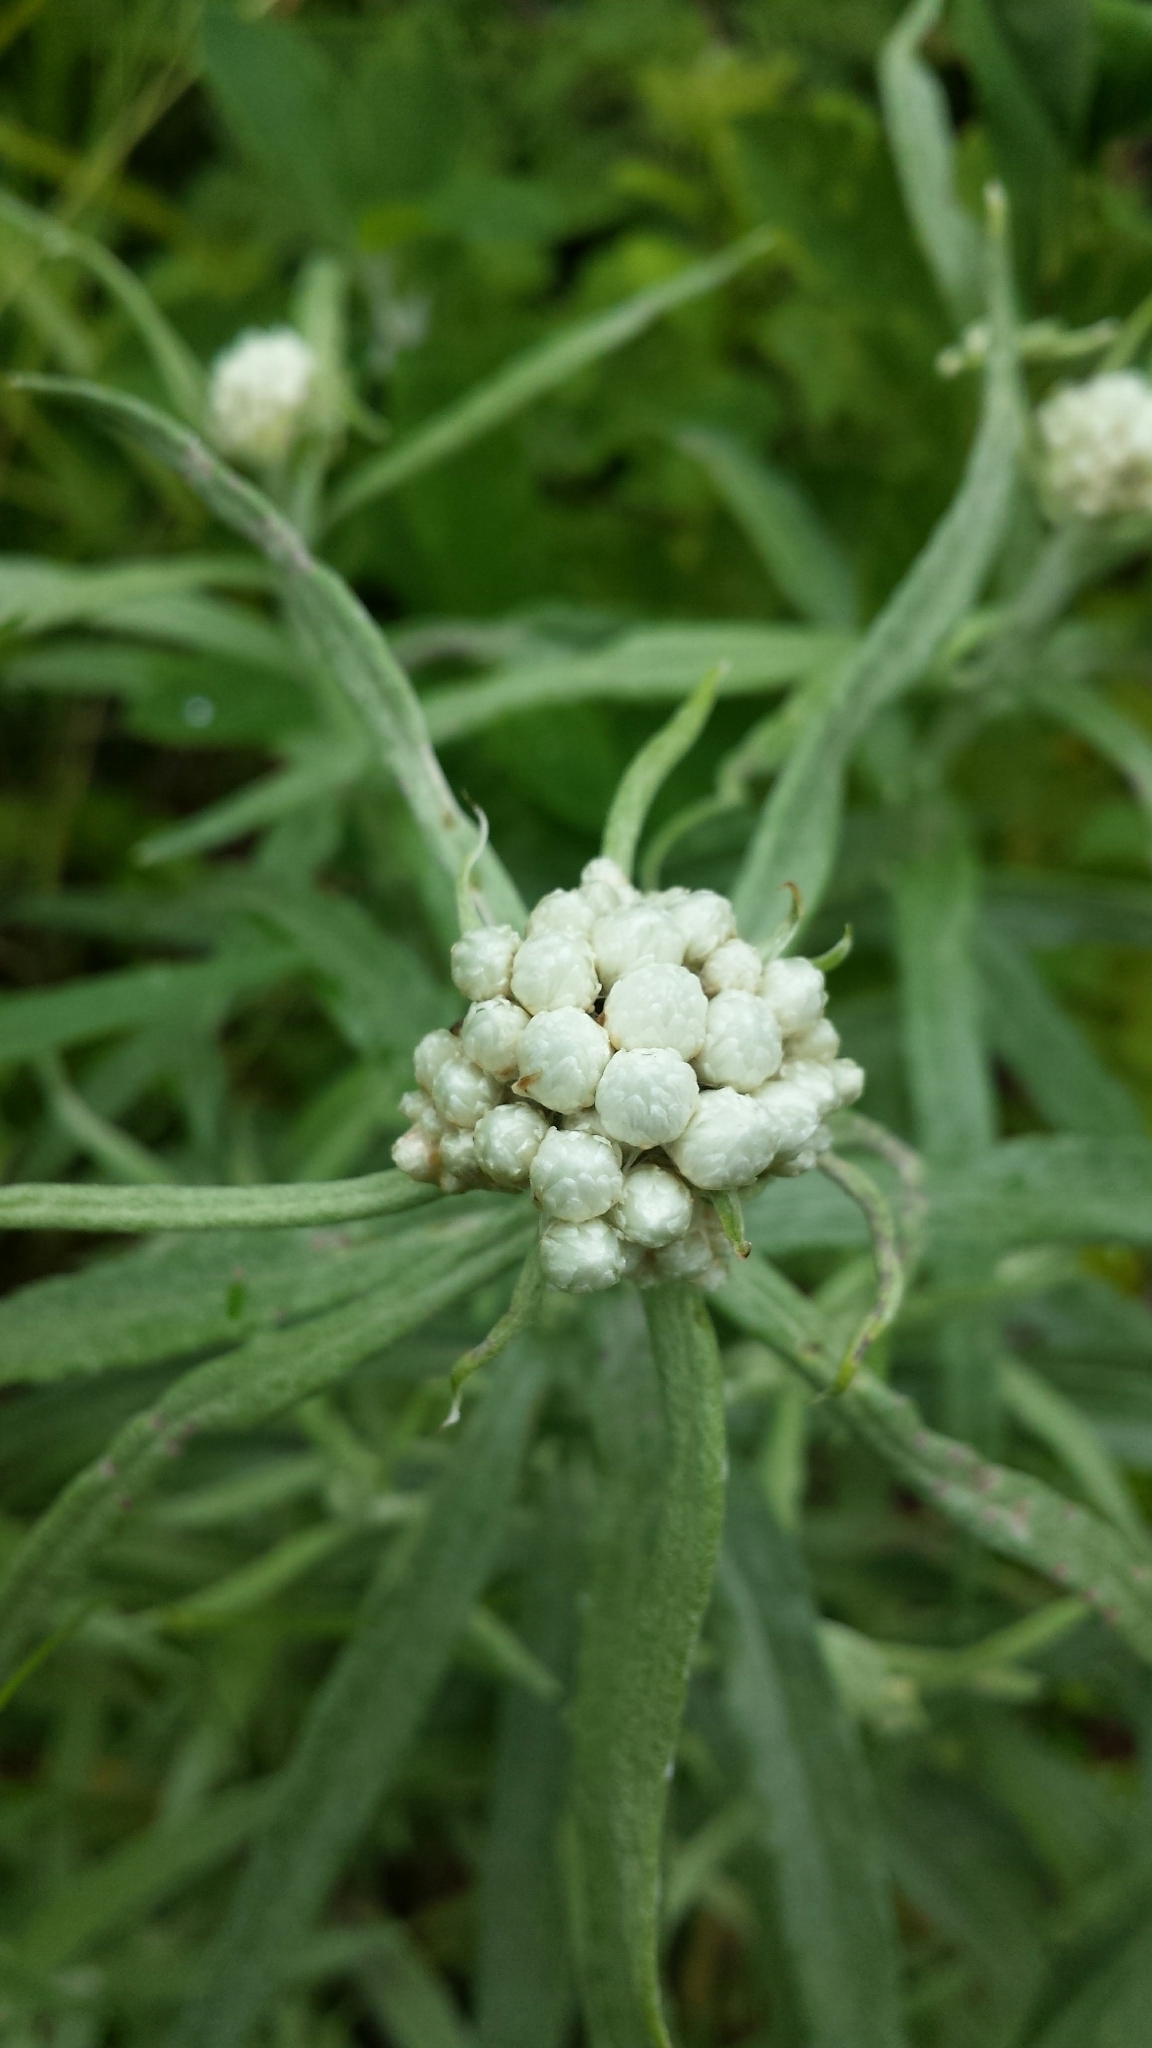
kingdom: Plantae
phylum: Tracheophyta
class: Magnoliopsida
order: Asterales
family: Asteraceae
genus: Anaphalis
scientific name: Anaphalis margaritacea
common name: Pearly everlasting
